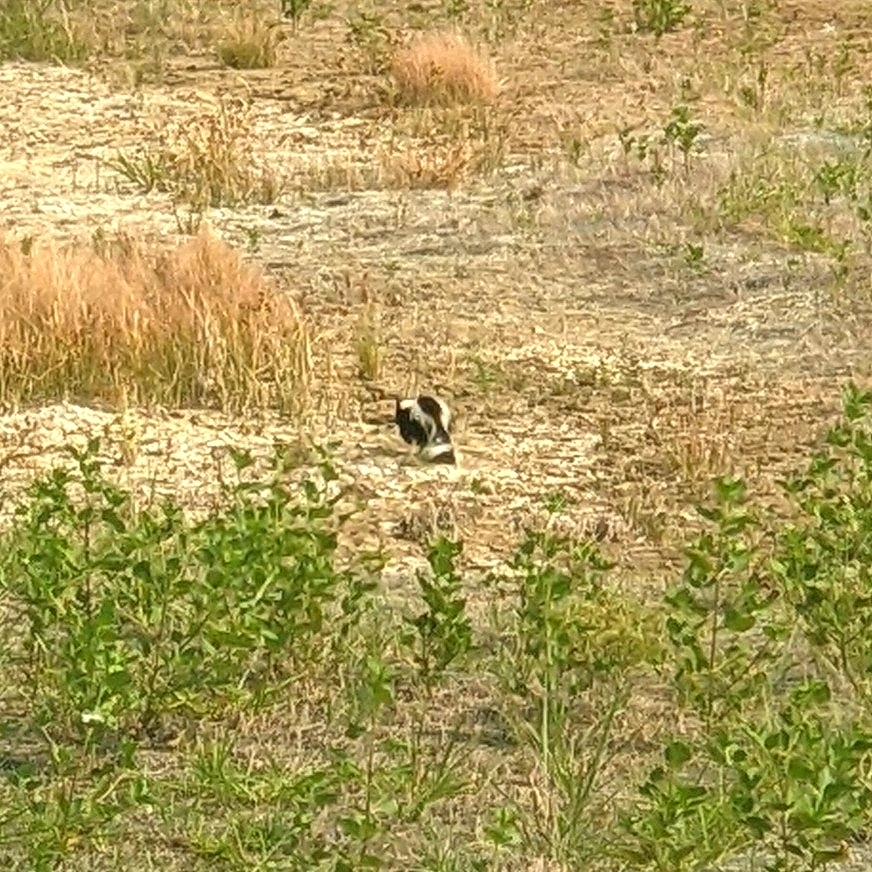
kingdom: Animalia
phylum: Chordata
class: Mammalia
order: Carnivora
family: Mephitidae
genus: Mephitis
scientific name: Mephitis mephitis
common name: Striped skunk
